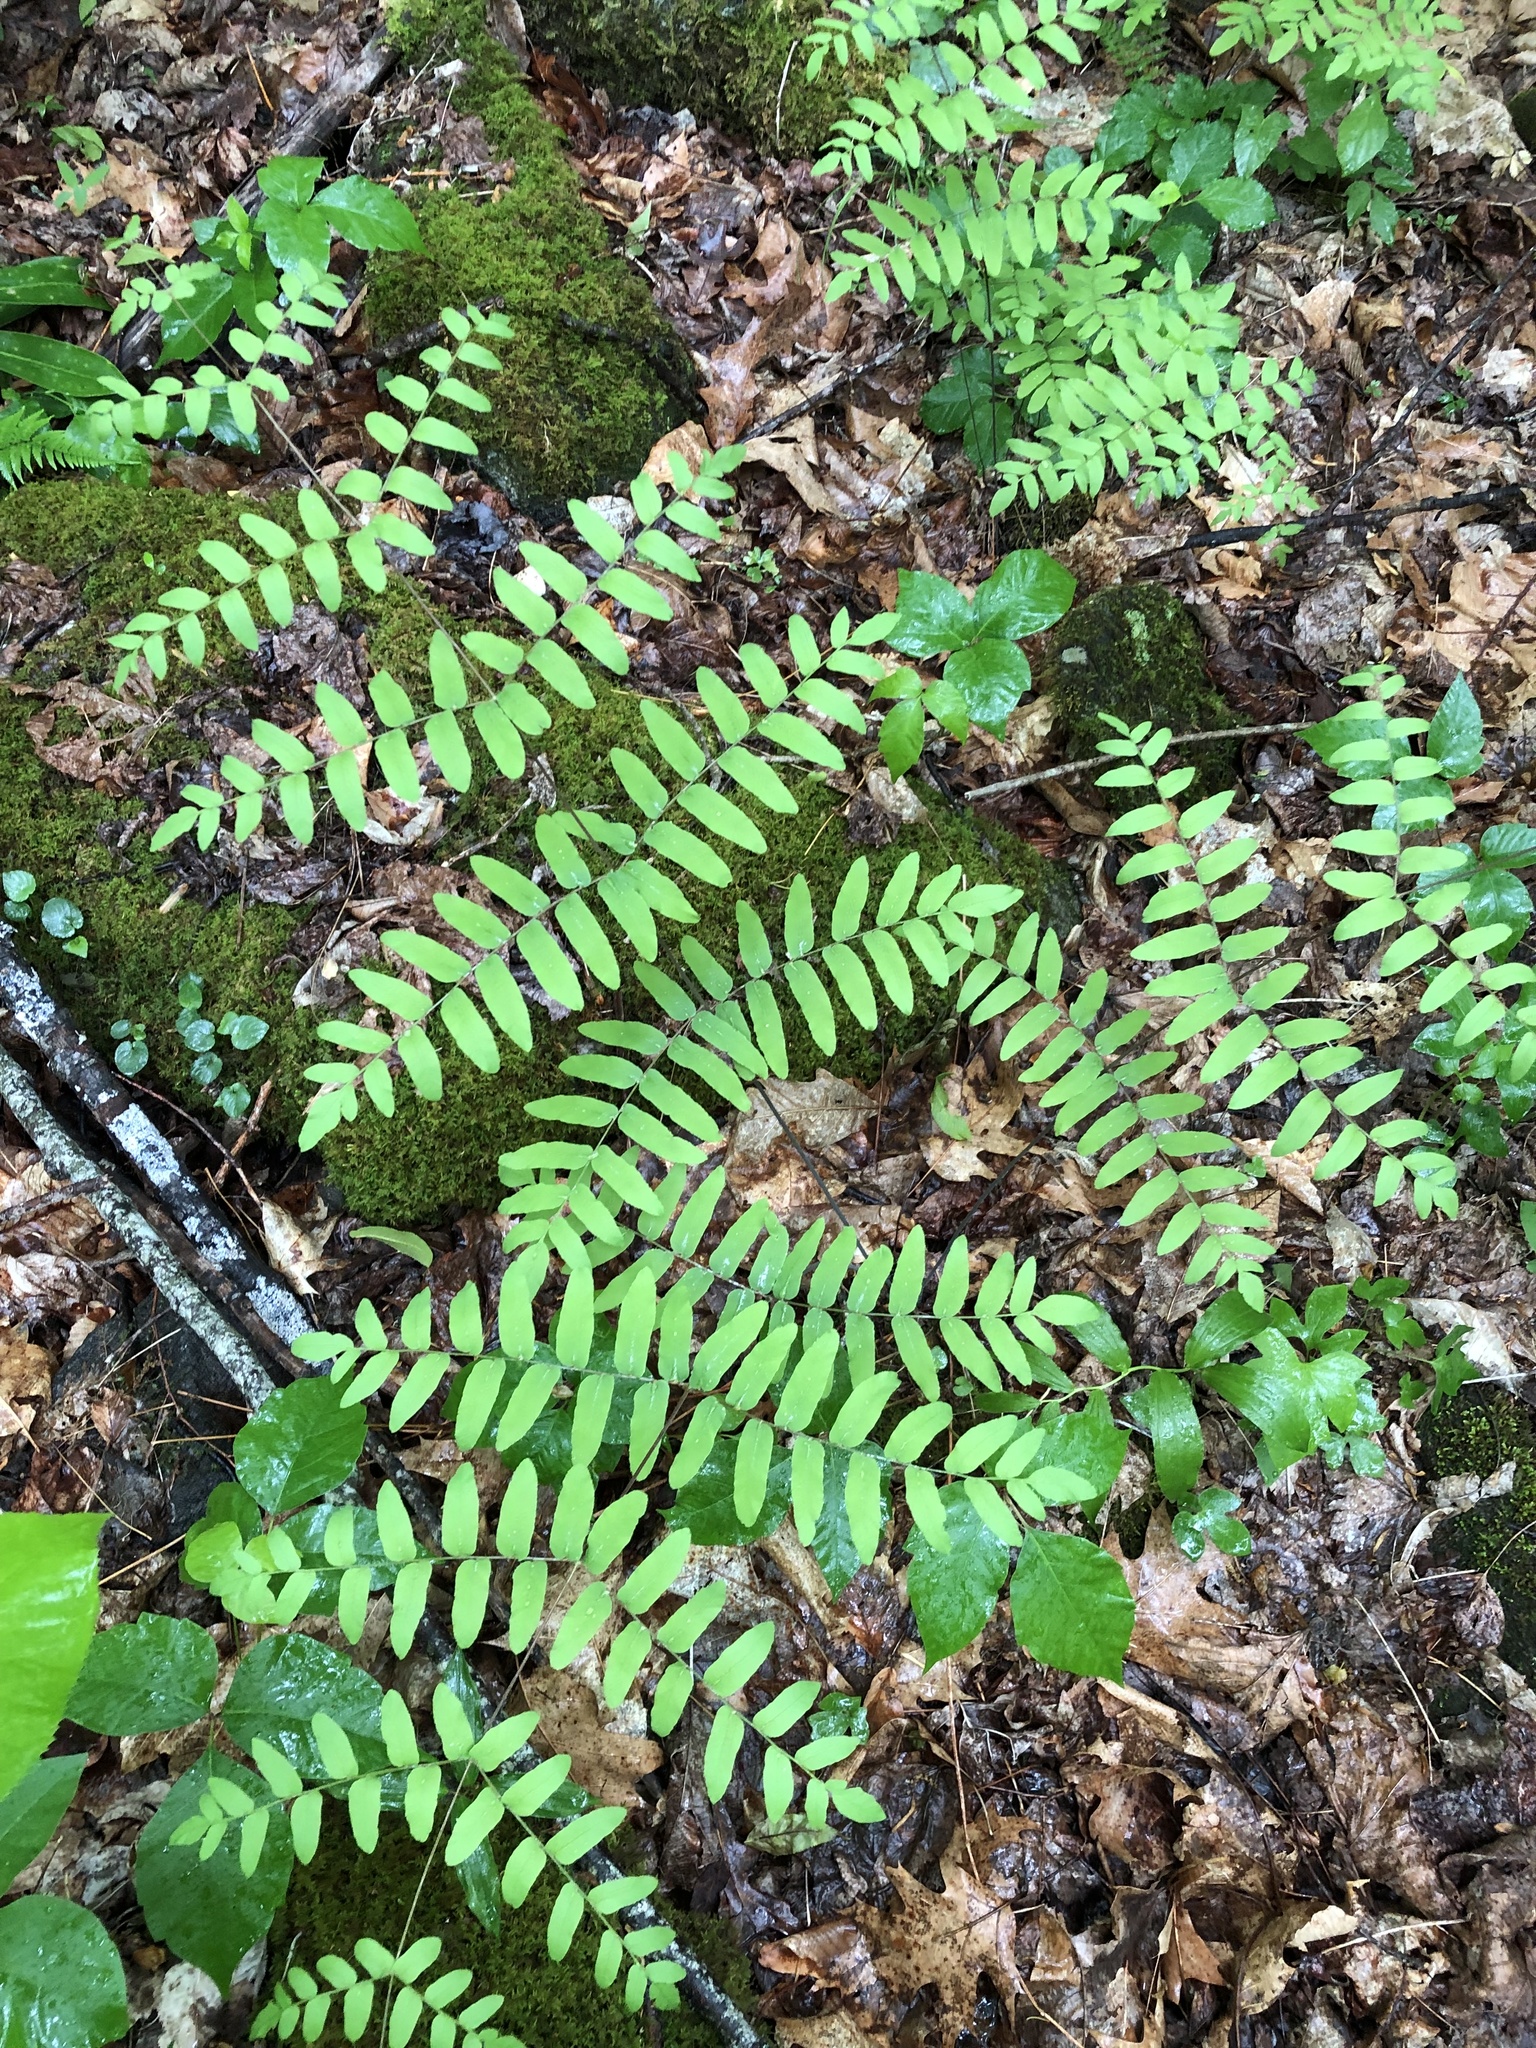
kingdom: Plantae
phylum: Tracheophyta
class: Polypodiopsida
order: Osmundales
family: Osmundaceae
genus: Osmunda
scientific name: Osmunda spectabilis
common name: American royal fern
